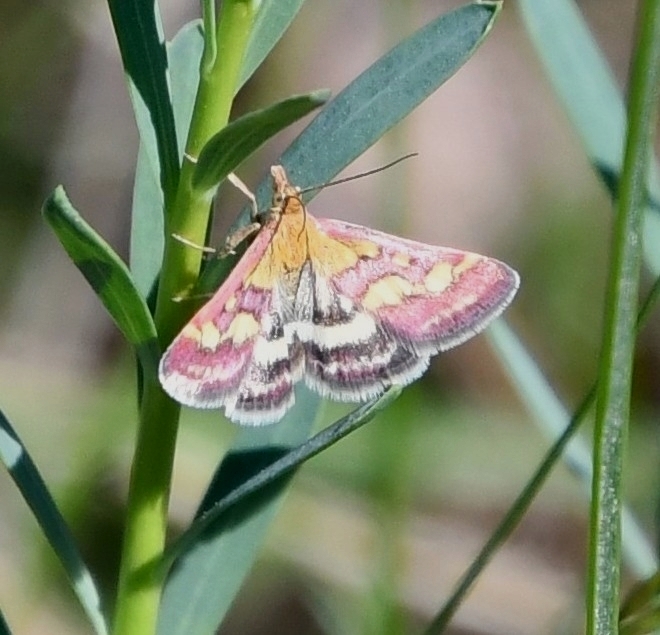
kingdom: Animalia
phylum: Arthropoda
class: Insecta
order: Lepidoptera
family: Crambidae
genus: Pyrausta
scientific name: Pyrausta ostrinalis
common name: Scarce purple & gold
